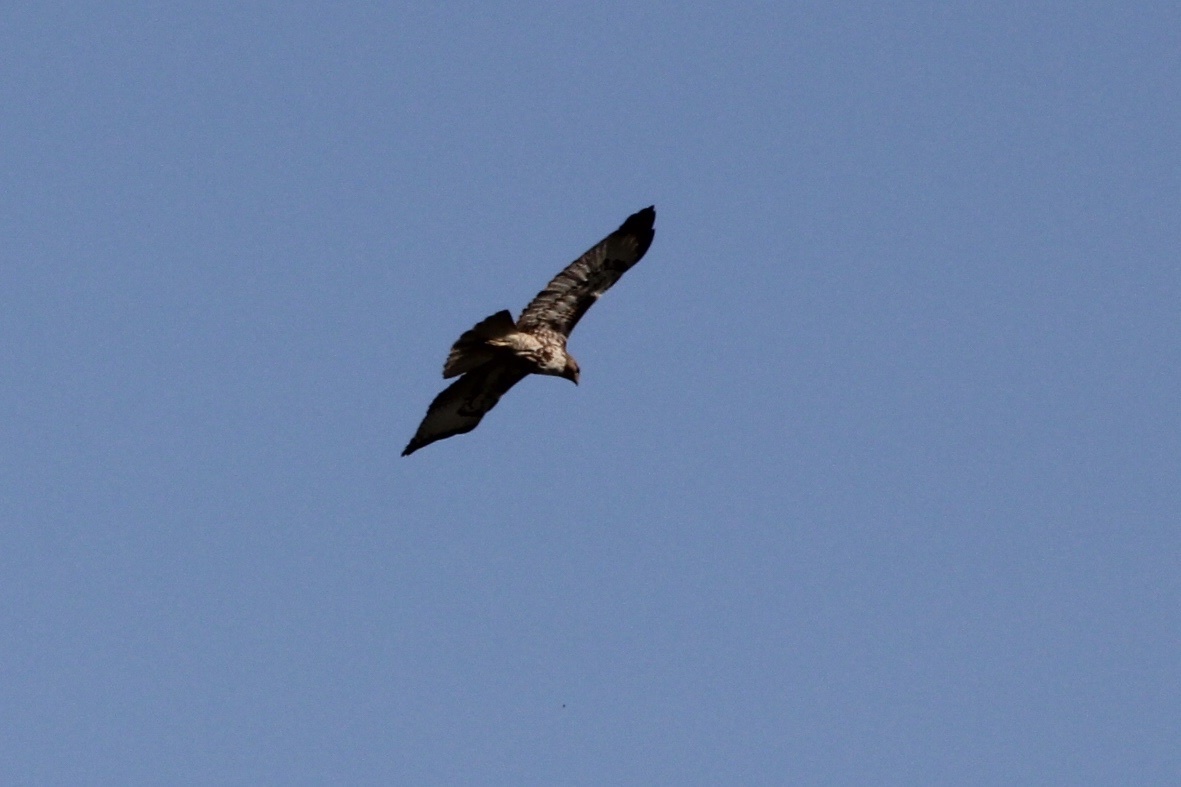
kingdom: Animalia
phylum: Chordata
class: Aves
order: Accipitriformes
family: Accipitridae
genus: Buteo
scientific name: Buteo jamaicensis
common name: Red-tailed hawk
